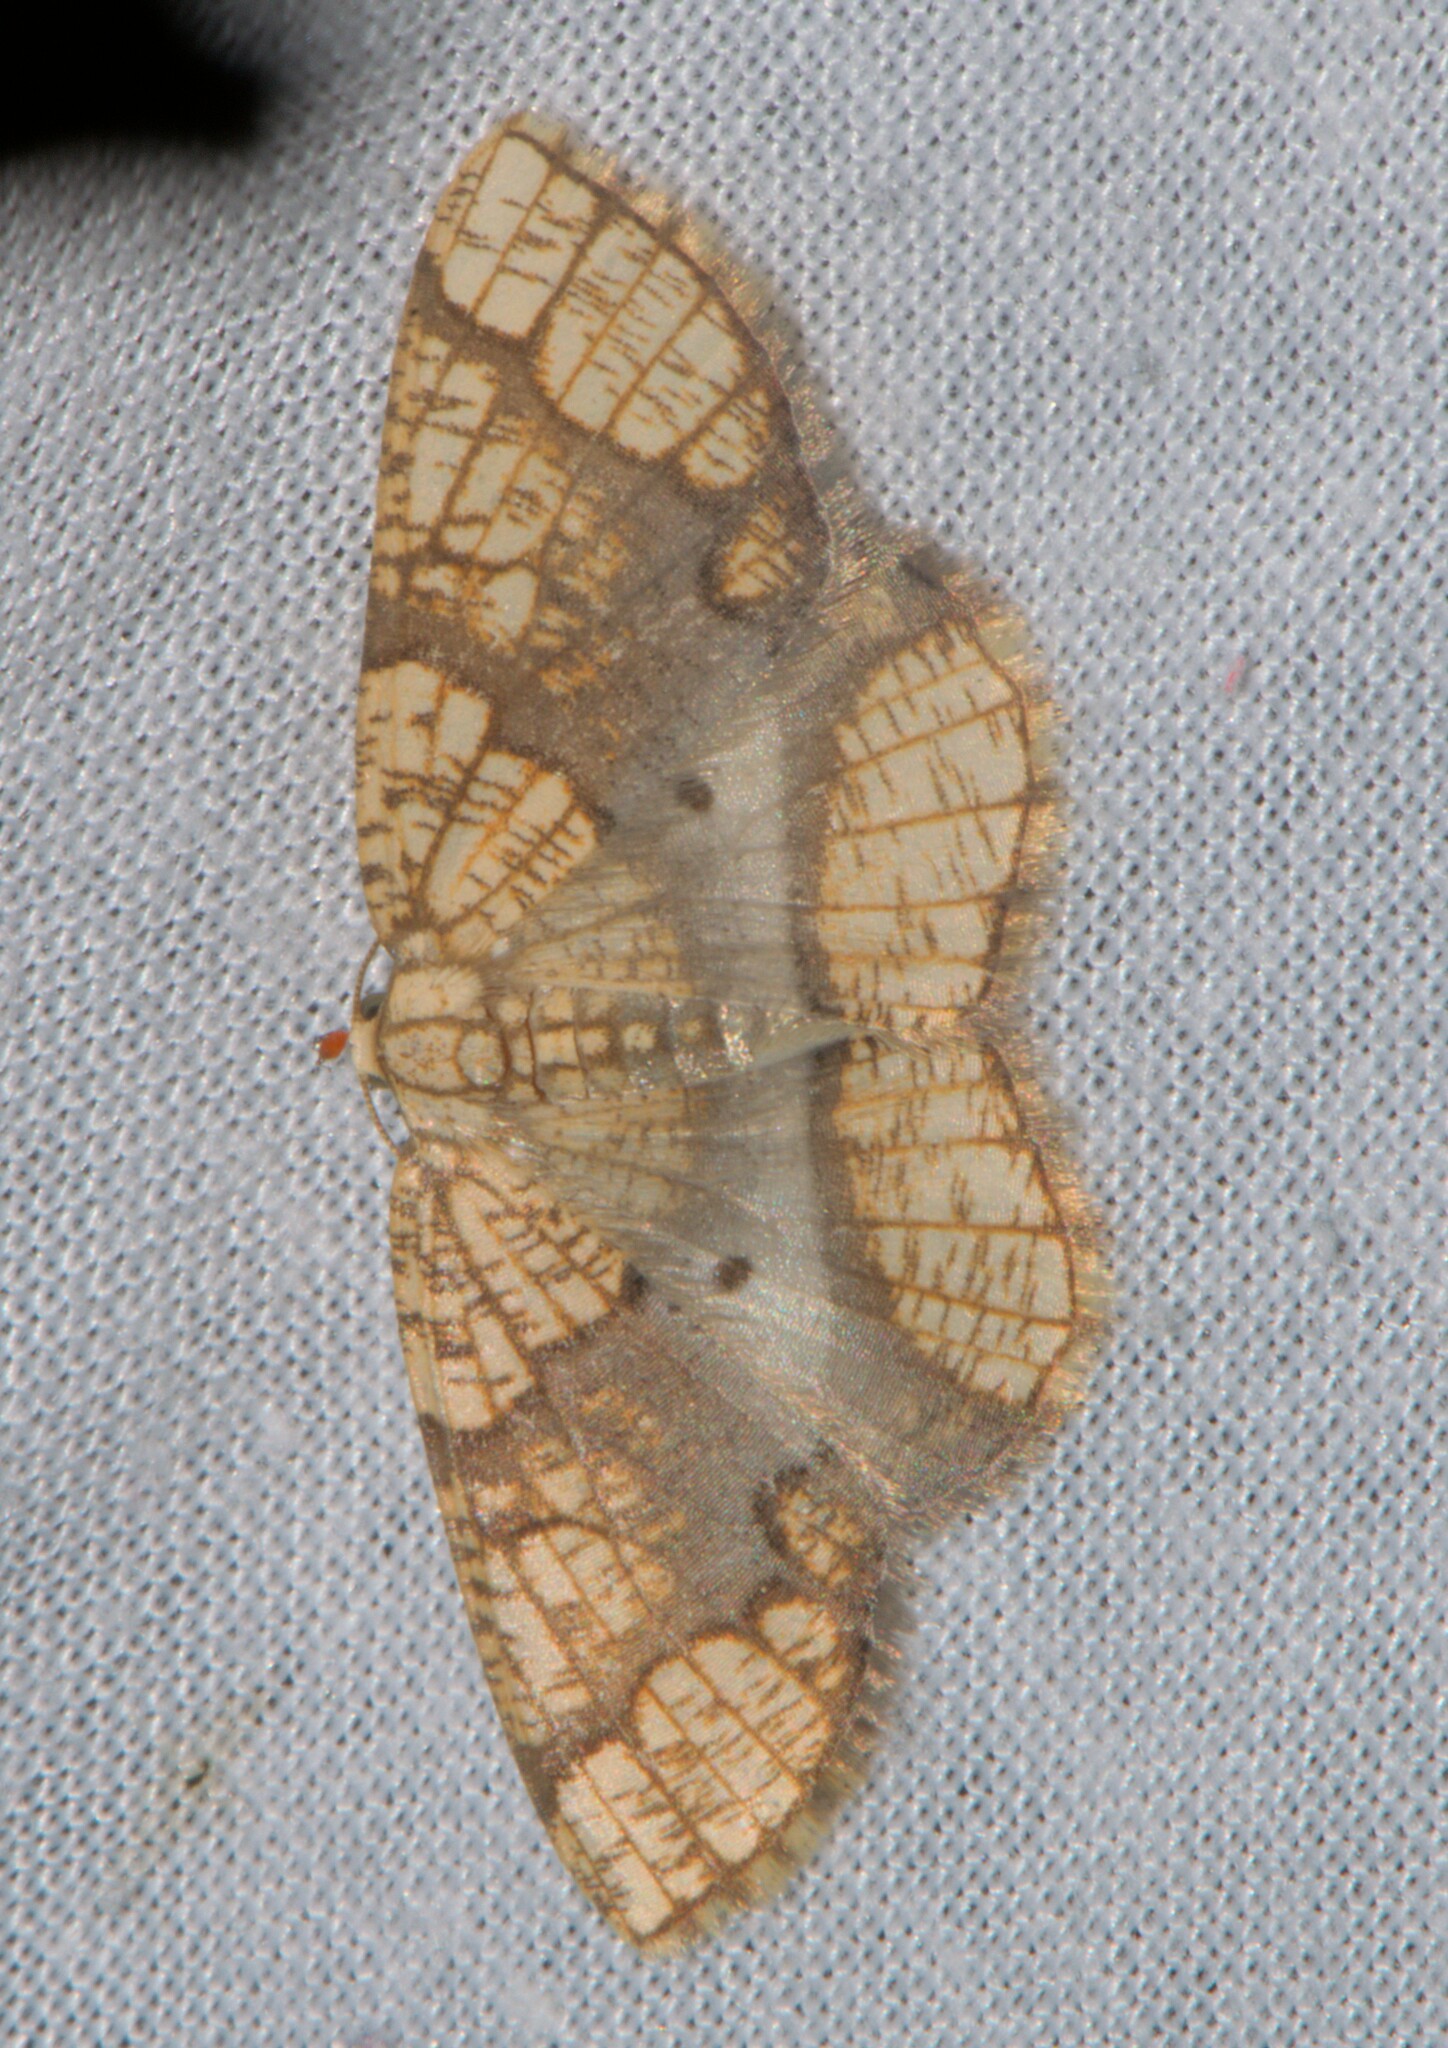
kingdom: Animalia
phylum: Arthropoda
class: Insecta
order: Lepidoptera
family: Geometridae
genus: Orthobrachia
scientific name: Orthobrachia latifasciata
